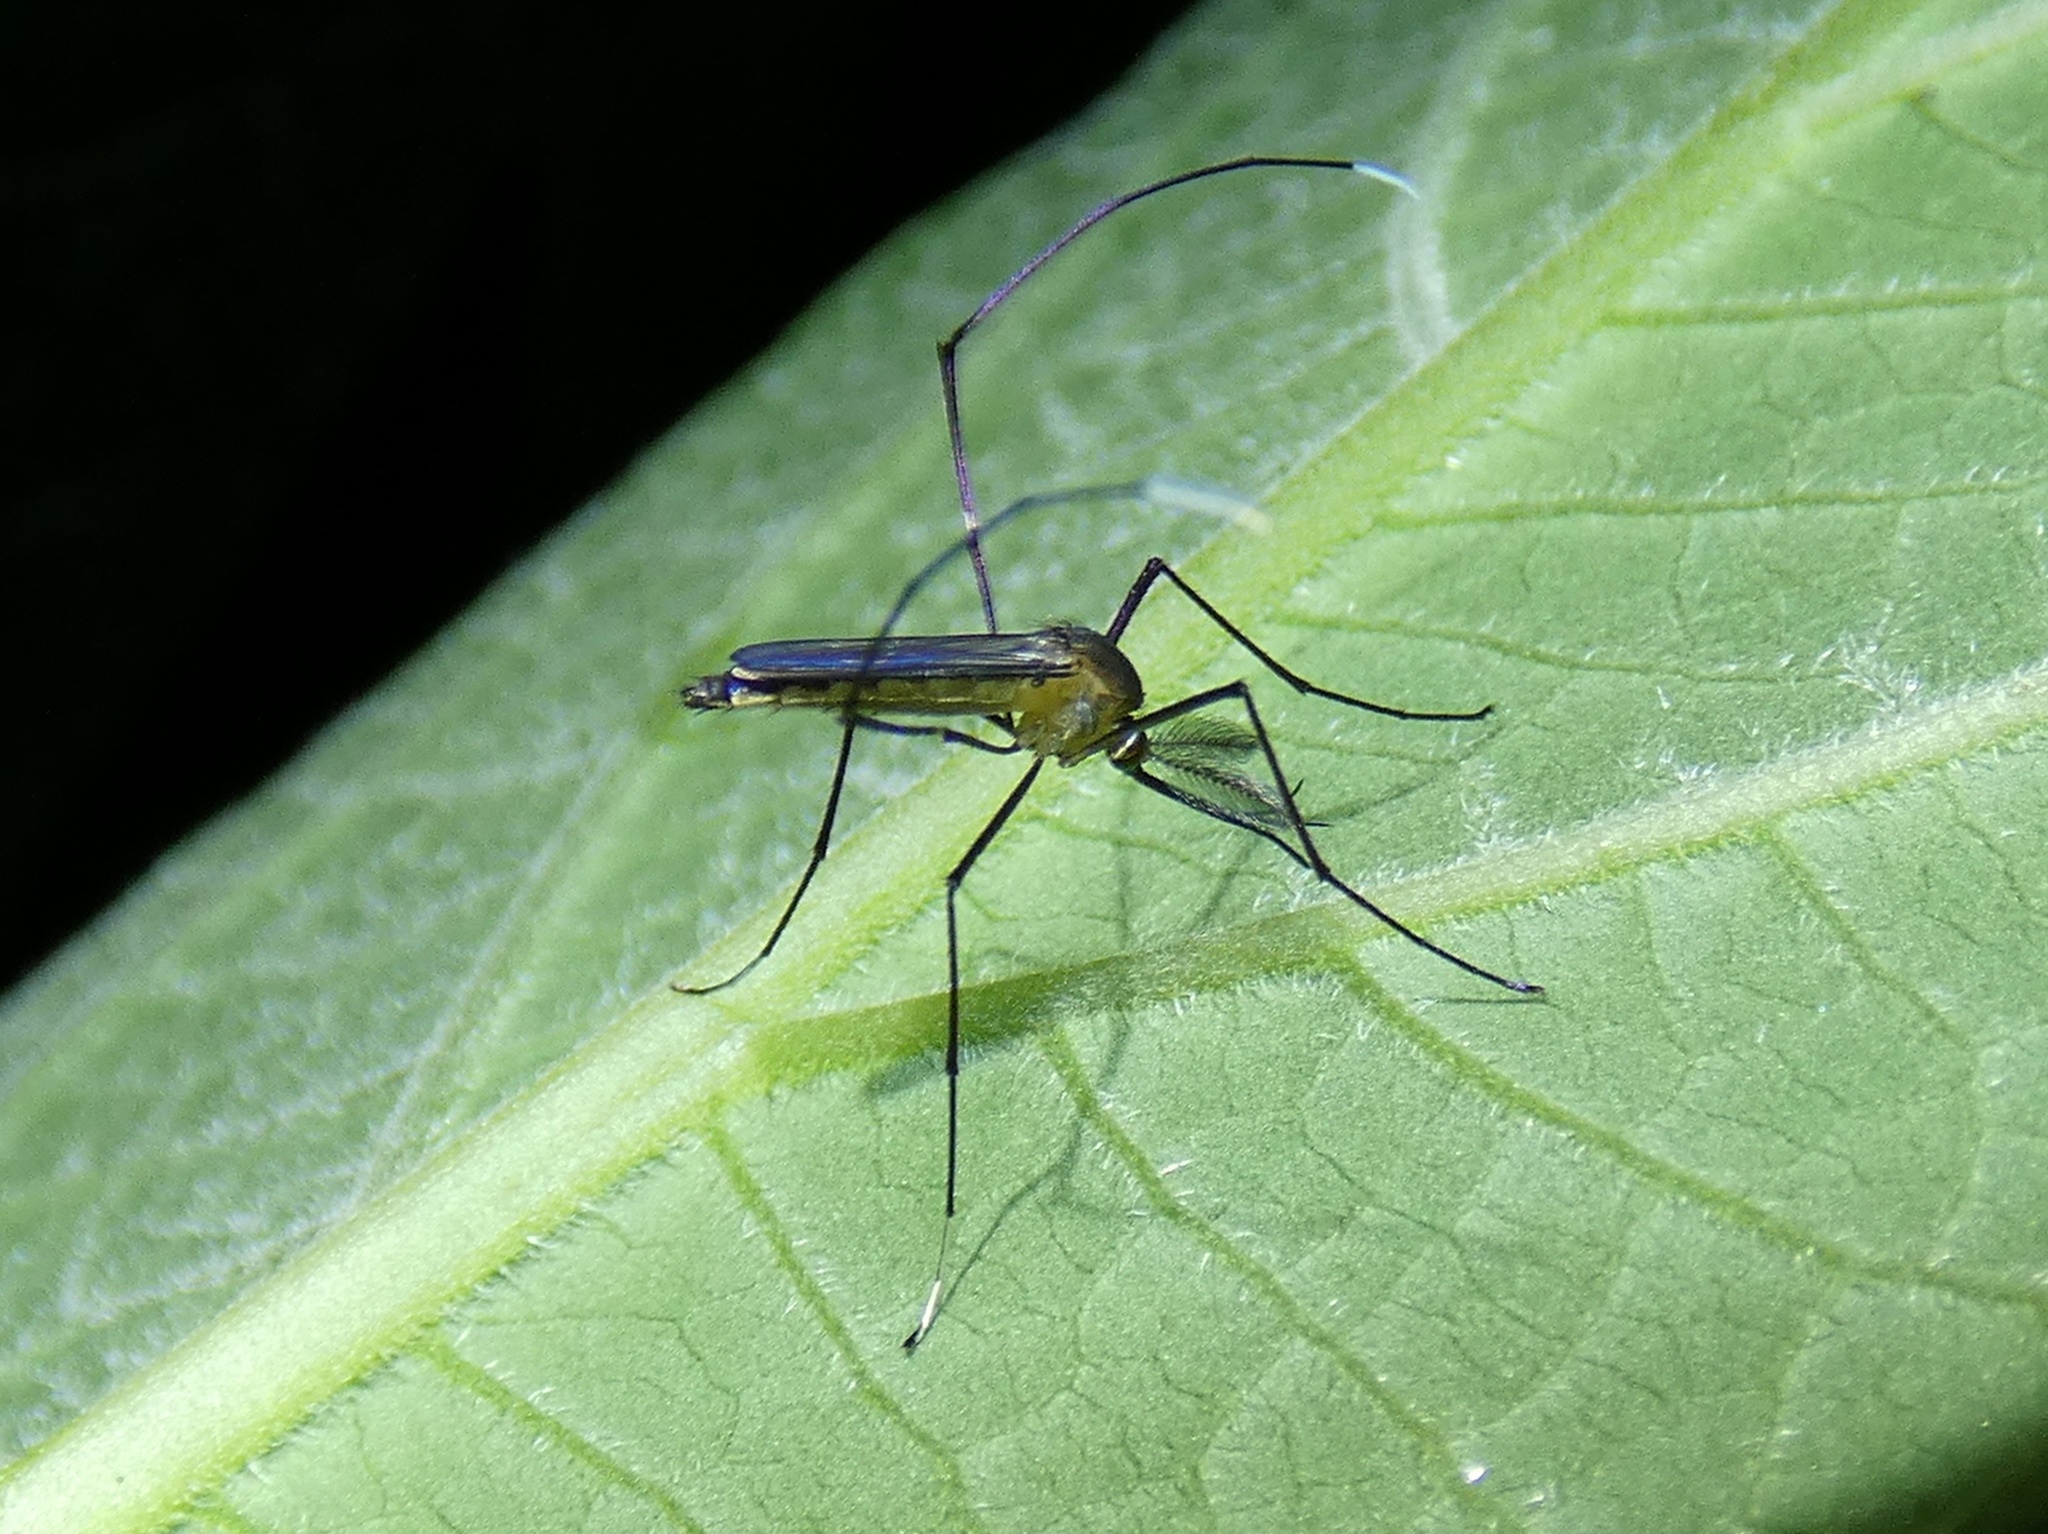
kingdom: Animalia
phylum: Arthropoda
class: Insecta
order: Diptera
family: Culicidae
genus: Trichoprosopon
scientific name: Trichoprosopon digitatum
